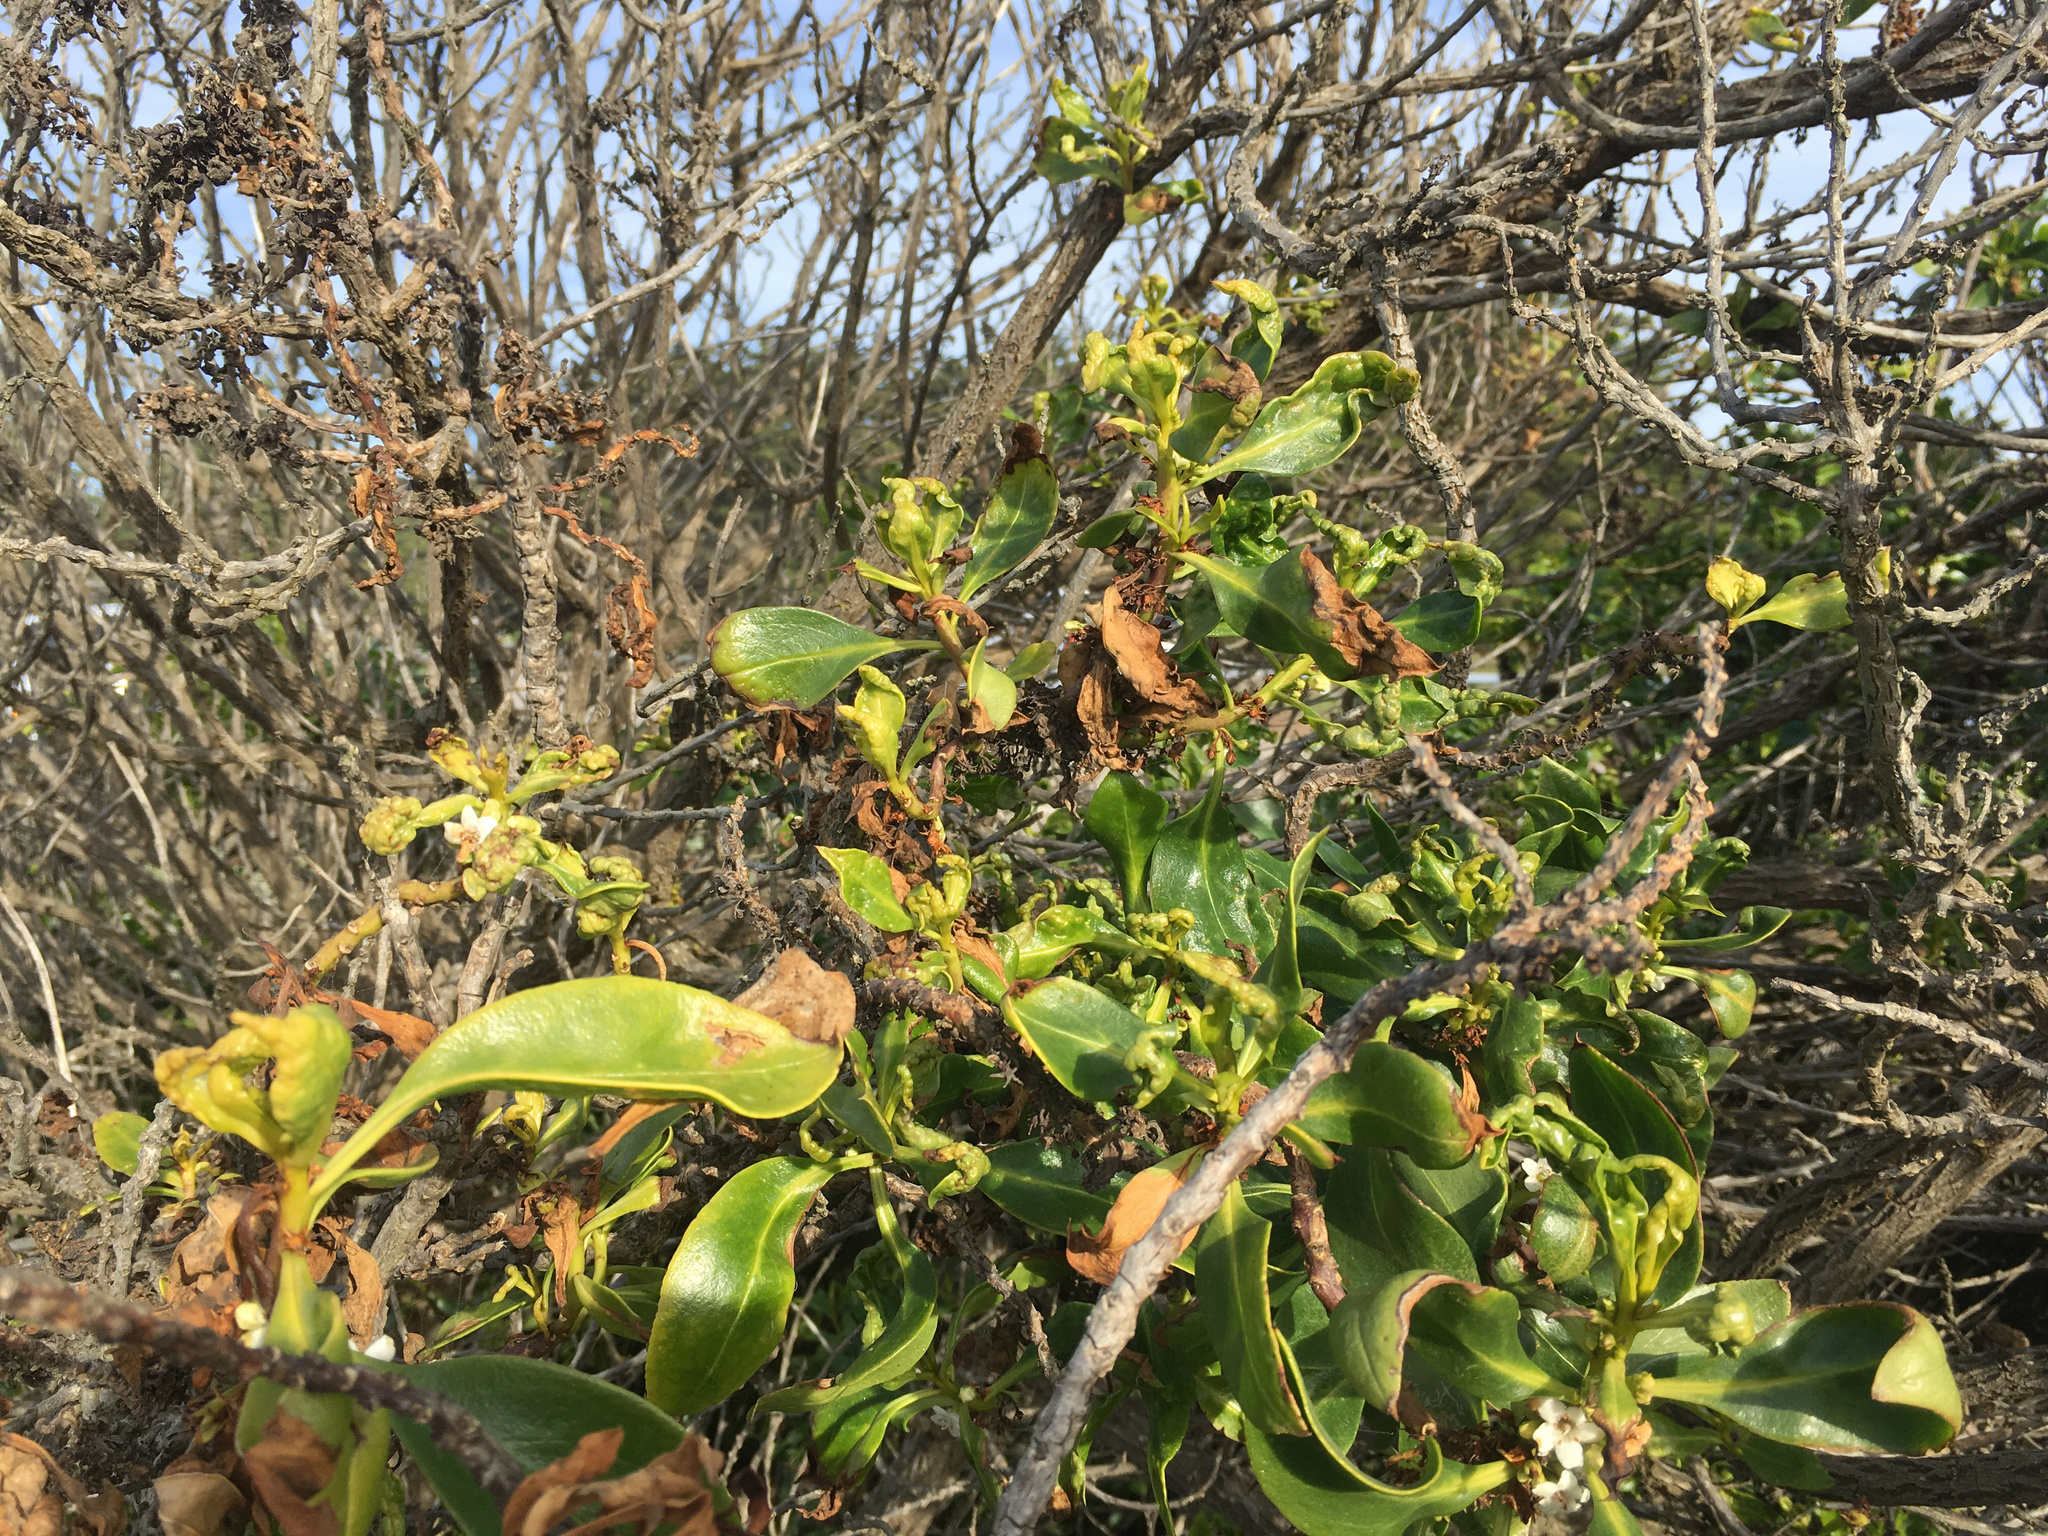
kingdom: Animalia
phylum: Arthropoda
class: Insecta
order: Thysanoptera
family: Phlaeothripidae
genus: Klambothrips
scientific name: Klambothrips myopori
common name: Myoporum thrips
